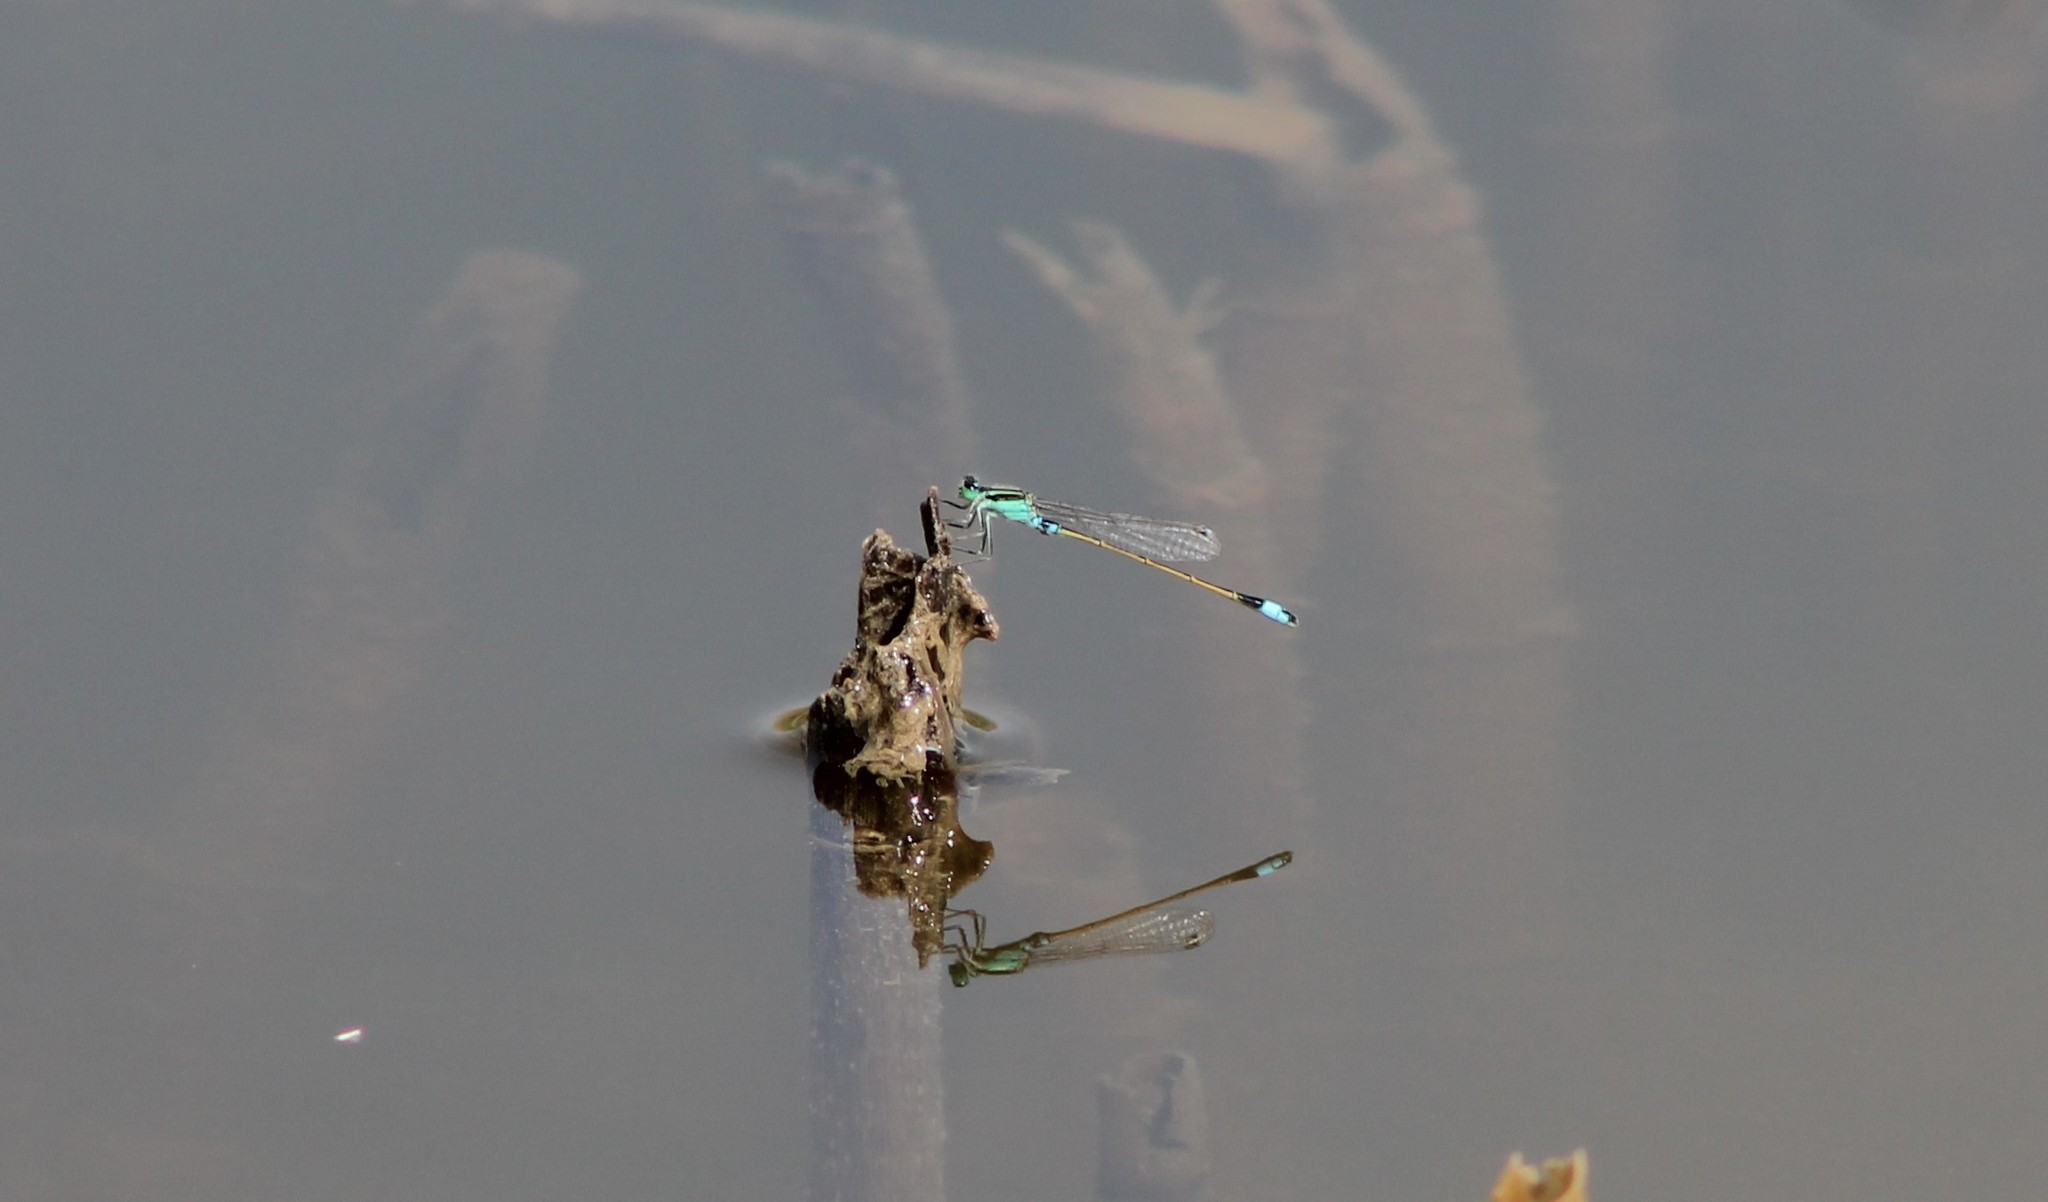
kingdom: Animalia
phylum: Arthropoda
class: Insecta
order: Odonata
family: Coenagrionidae
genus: Ischnura
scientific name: Ischnura senegalensis
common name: Tropical bluetail
